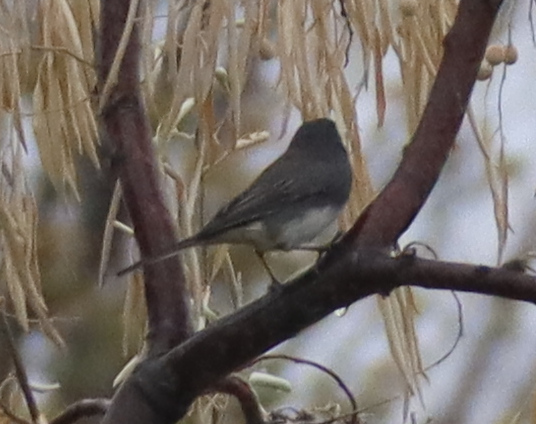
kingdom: Animalia
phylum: Chordata
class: Aves
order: Passeriformes
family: Passerellidae
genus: Junco
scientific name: Junco hyemalis
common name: Dark-eyed junco
